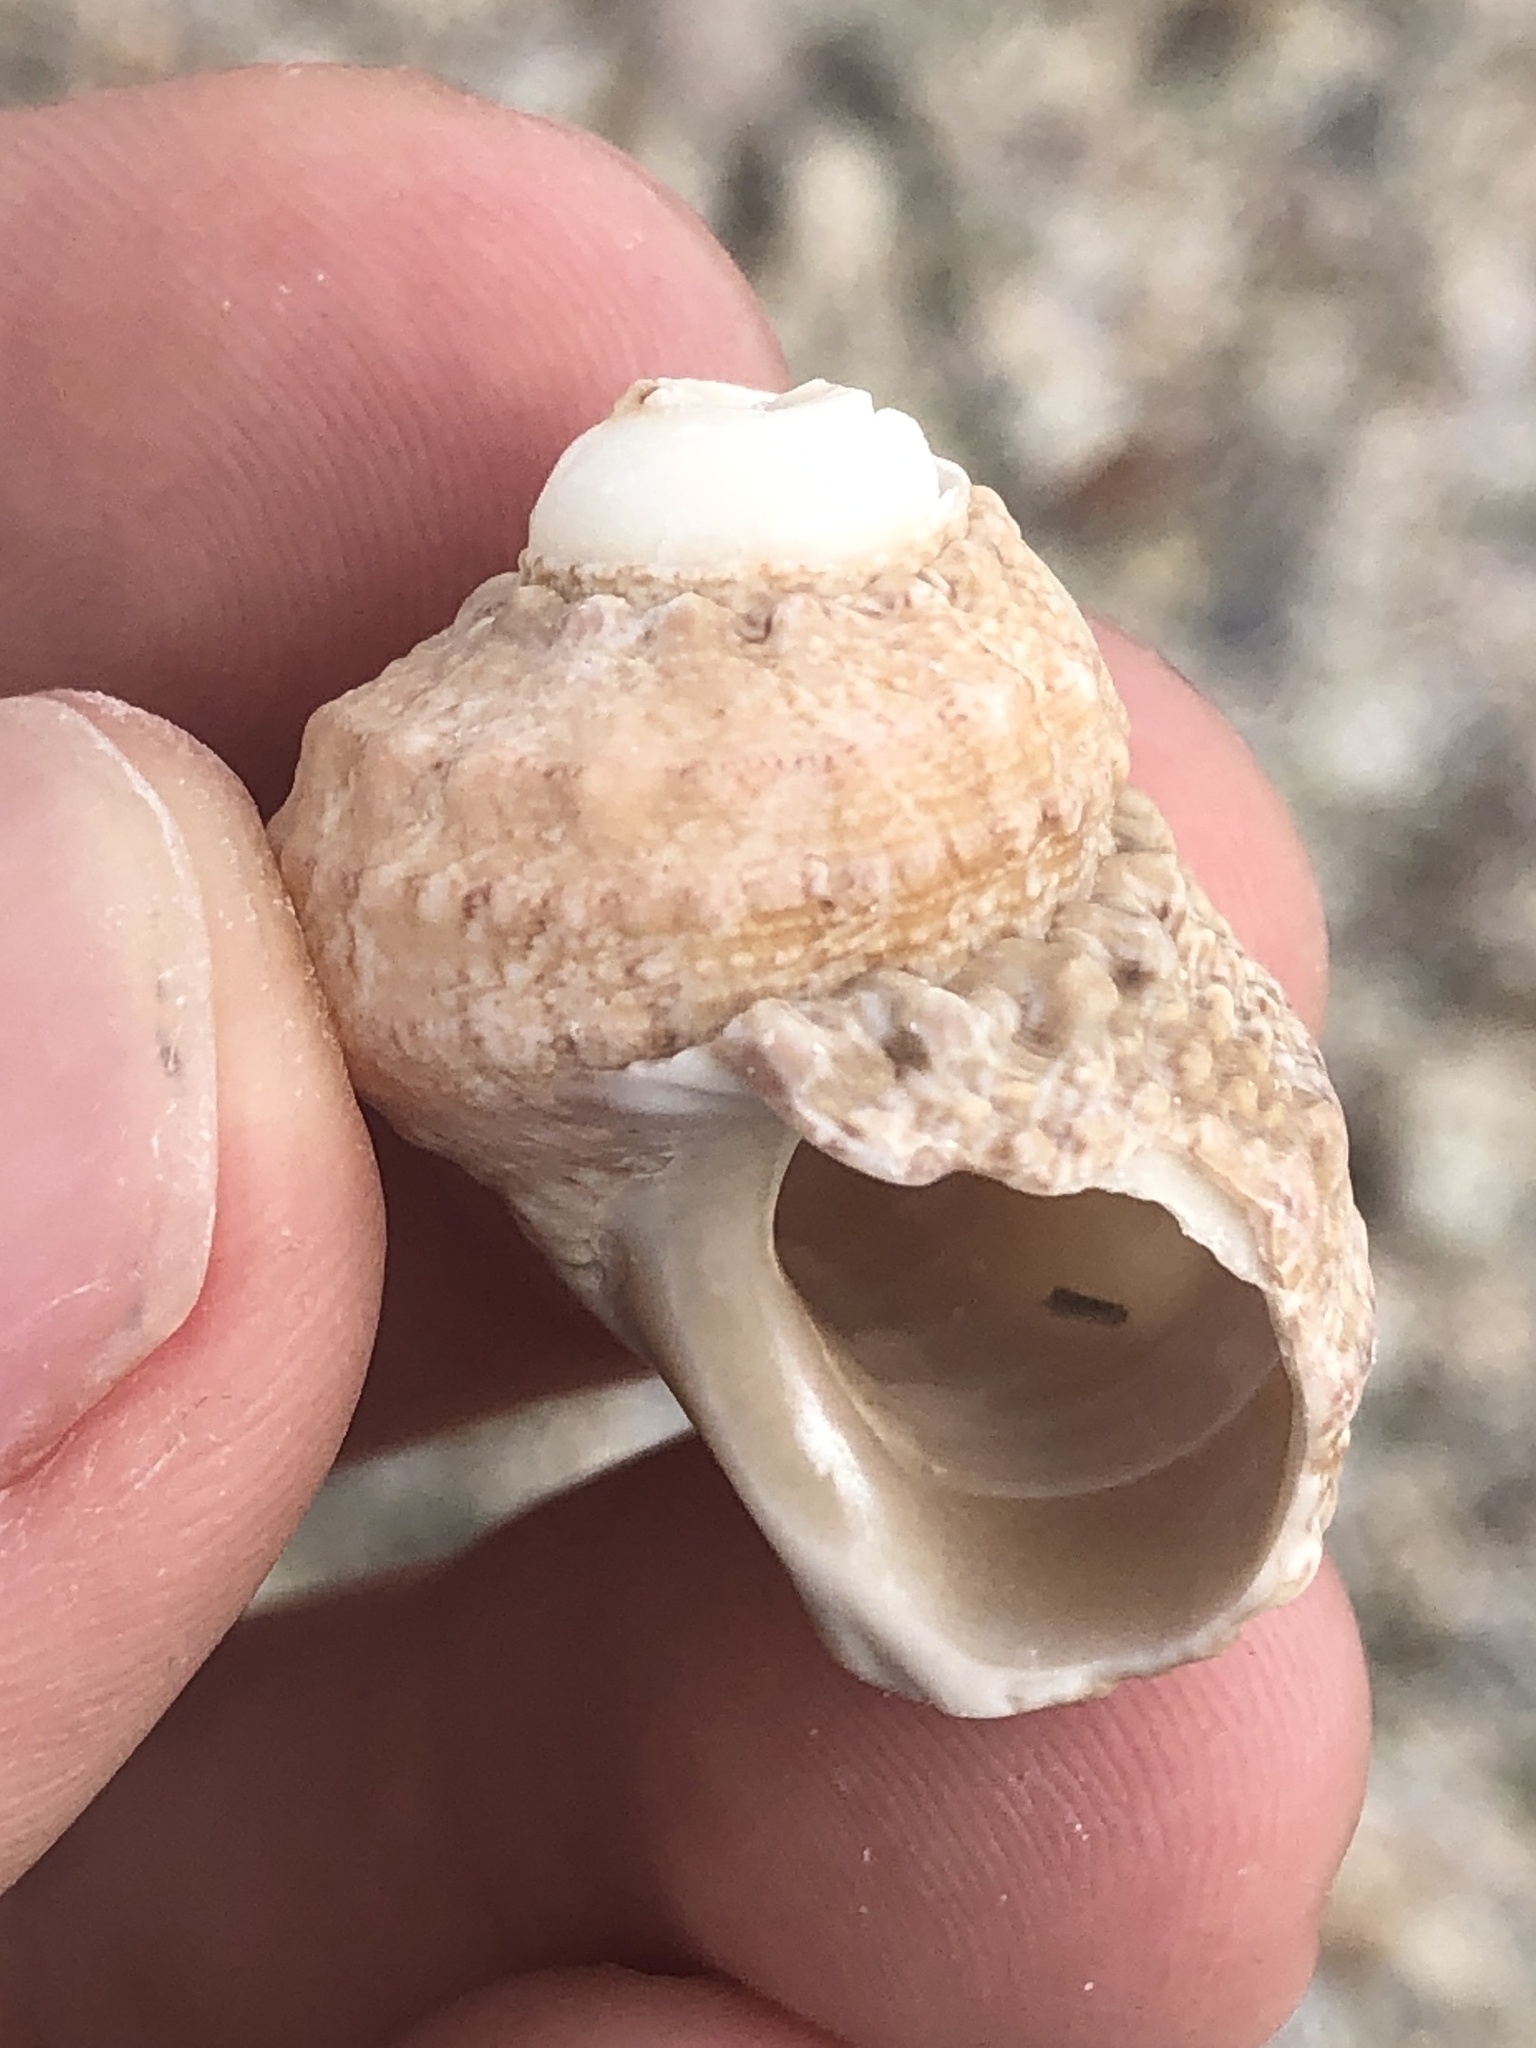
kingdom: Animalia
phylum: Mollusca
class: Gastropoda
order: Trochida
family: Turbinidae
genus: Turbo
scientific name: Turbo castanea
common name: Chestnut turban
